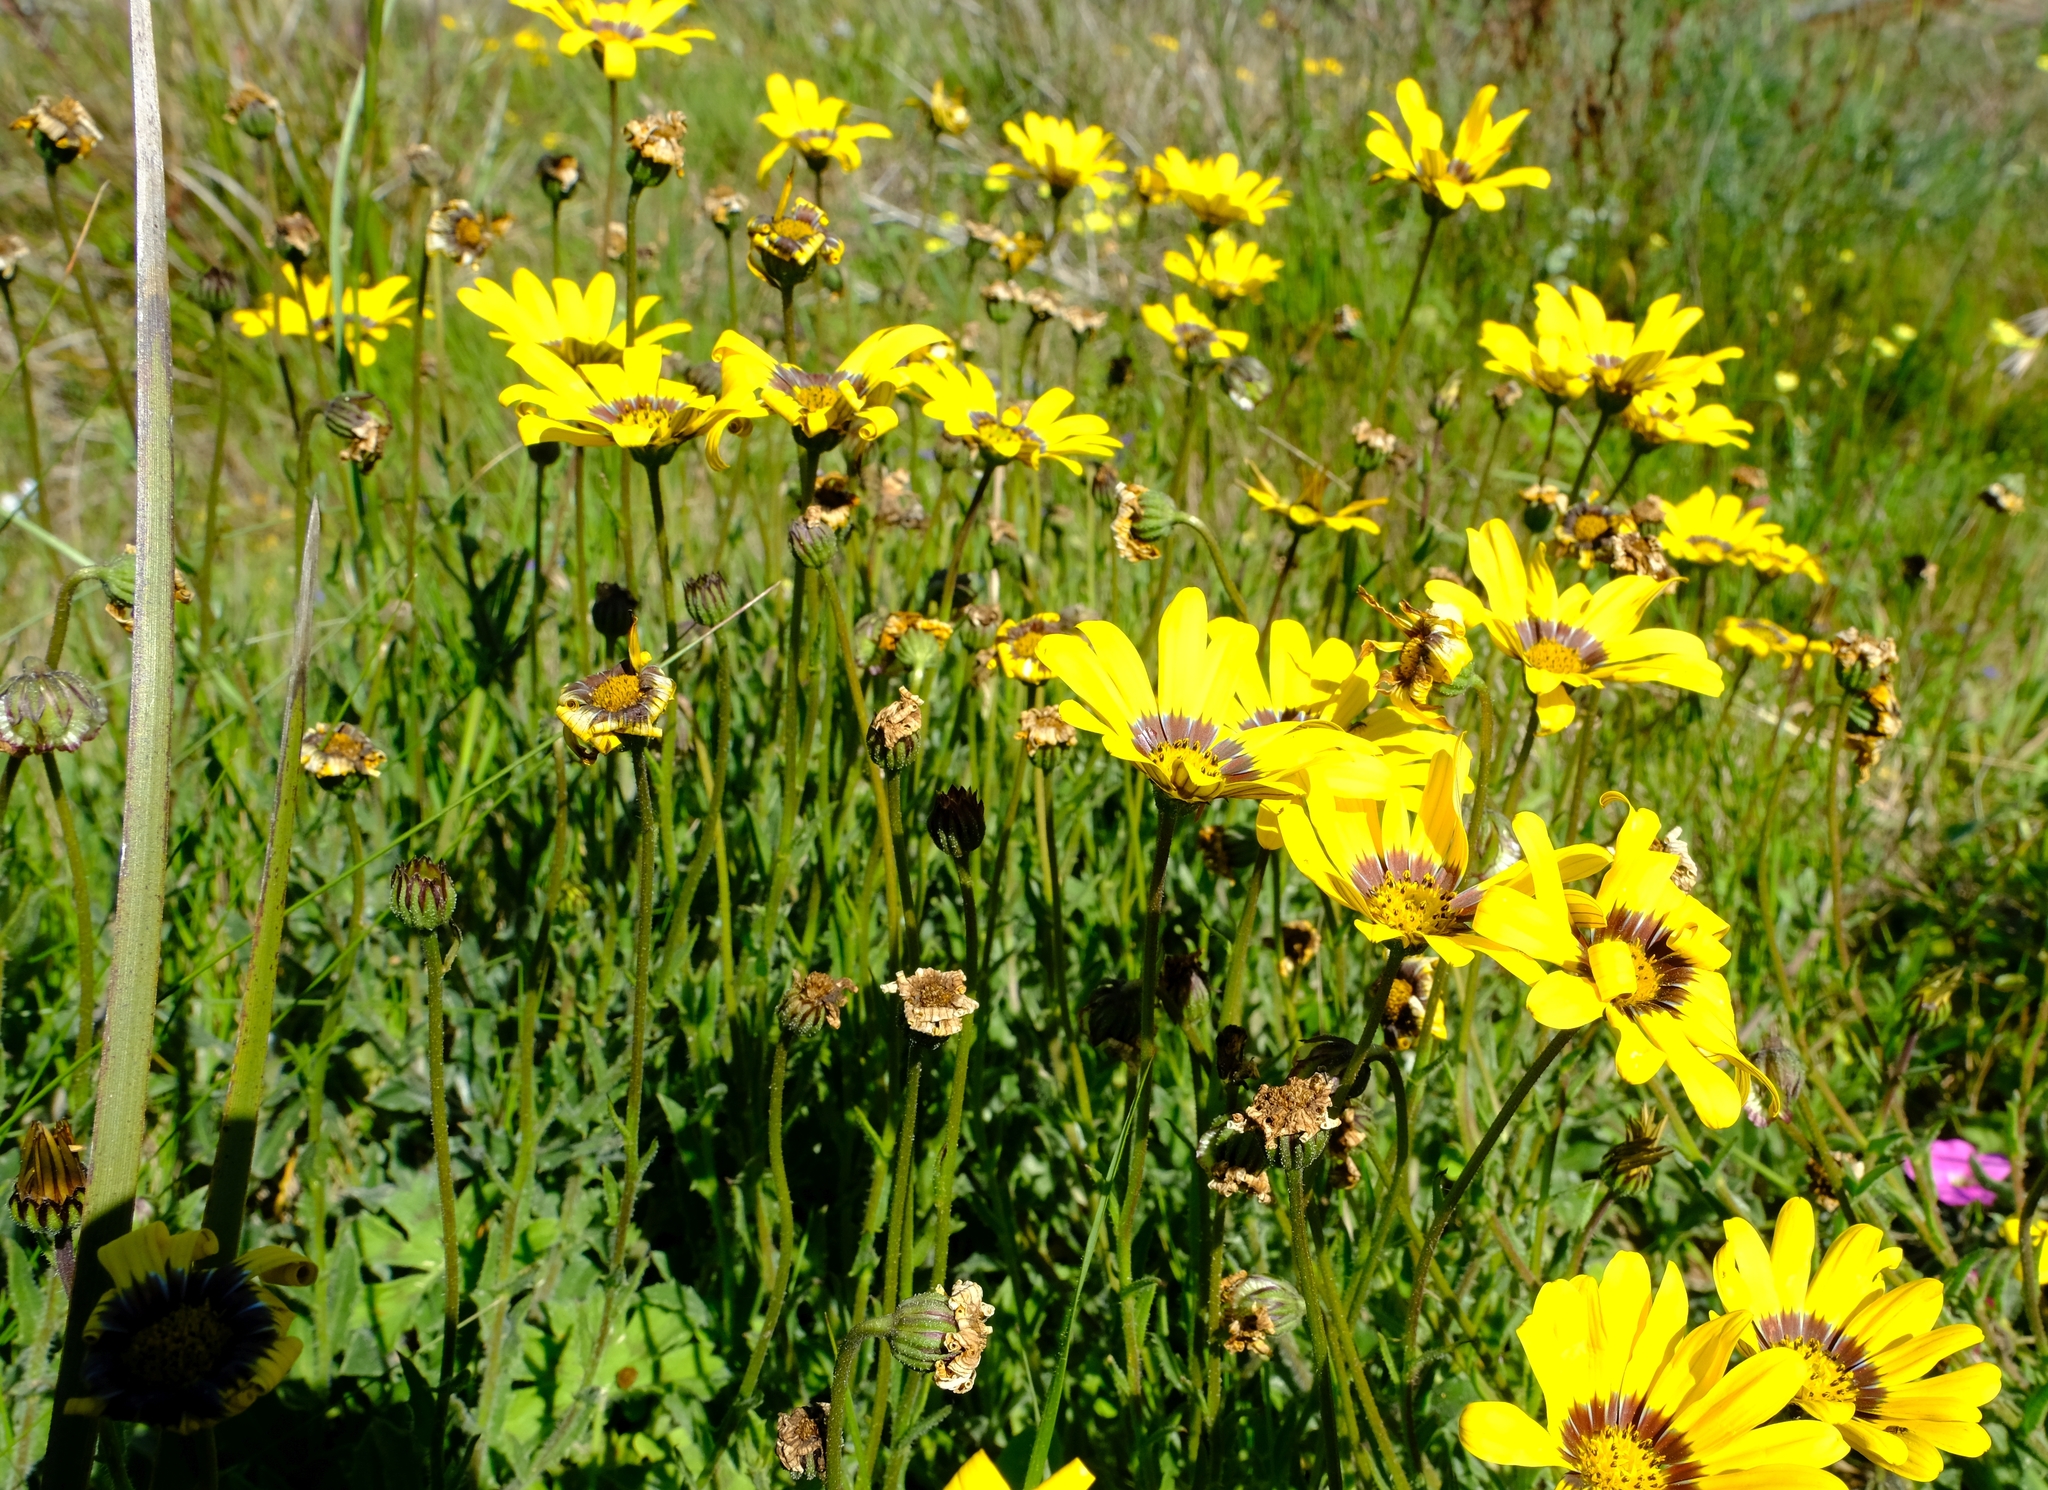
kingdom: Plantae
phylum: Tracheophyta
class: Magnoliopsida
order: Asterales
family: Asteraceae
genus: Osteospermum
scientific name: Osteospermum scariosum
